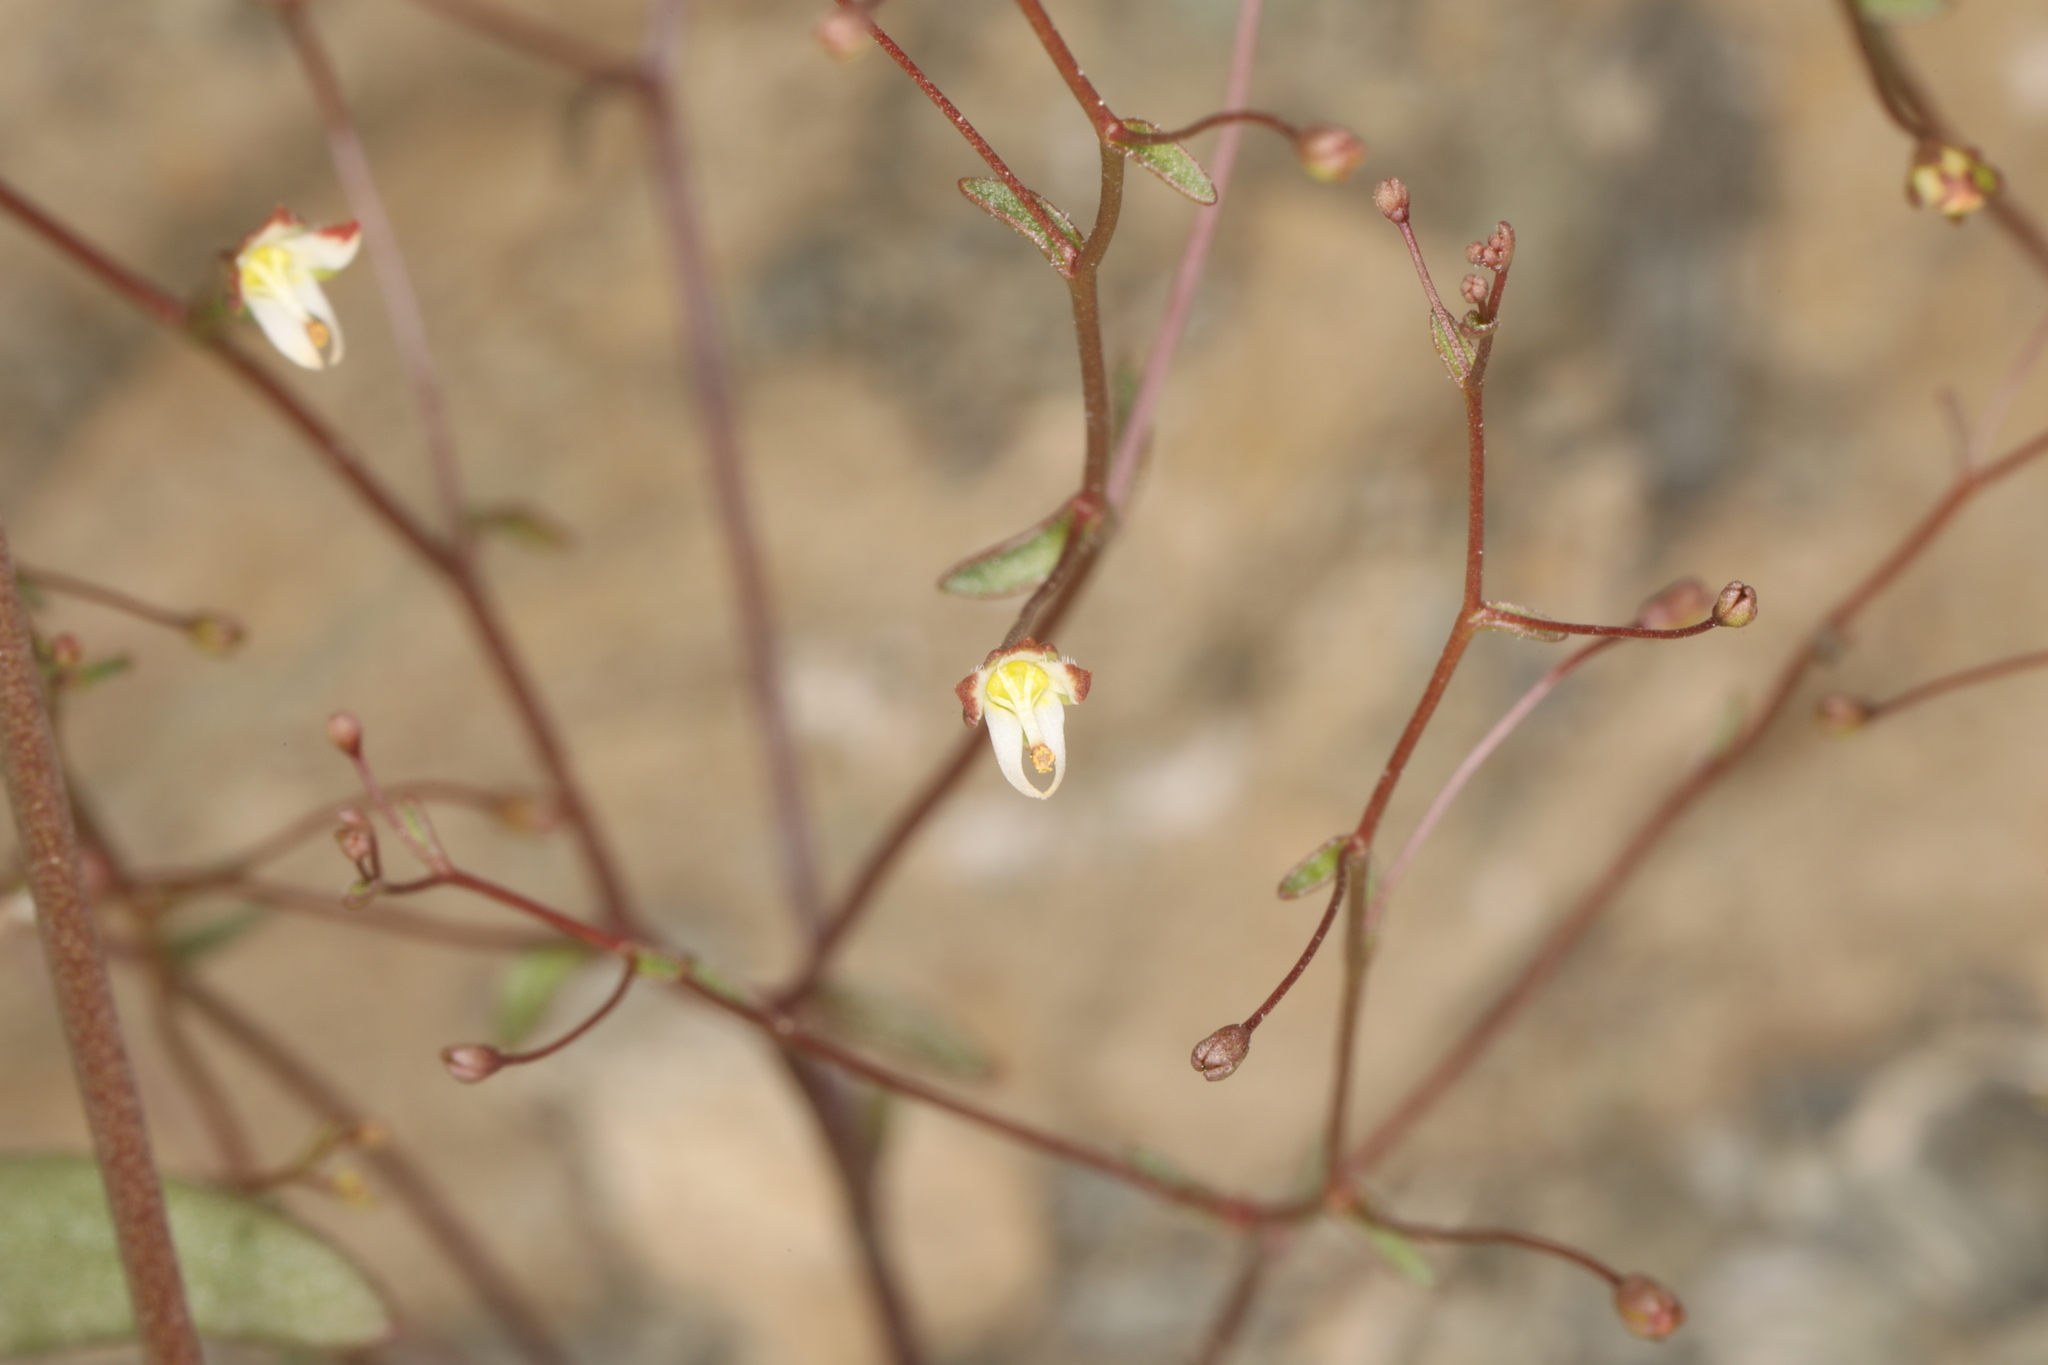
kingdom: Plantae
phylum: Tracheophyta
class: Magnoliopsida
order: Asterales
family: Campanulaceae
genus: Nemacladus
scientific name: Nemacladus morefieldii
